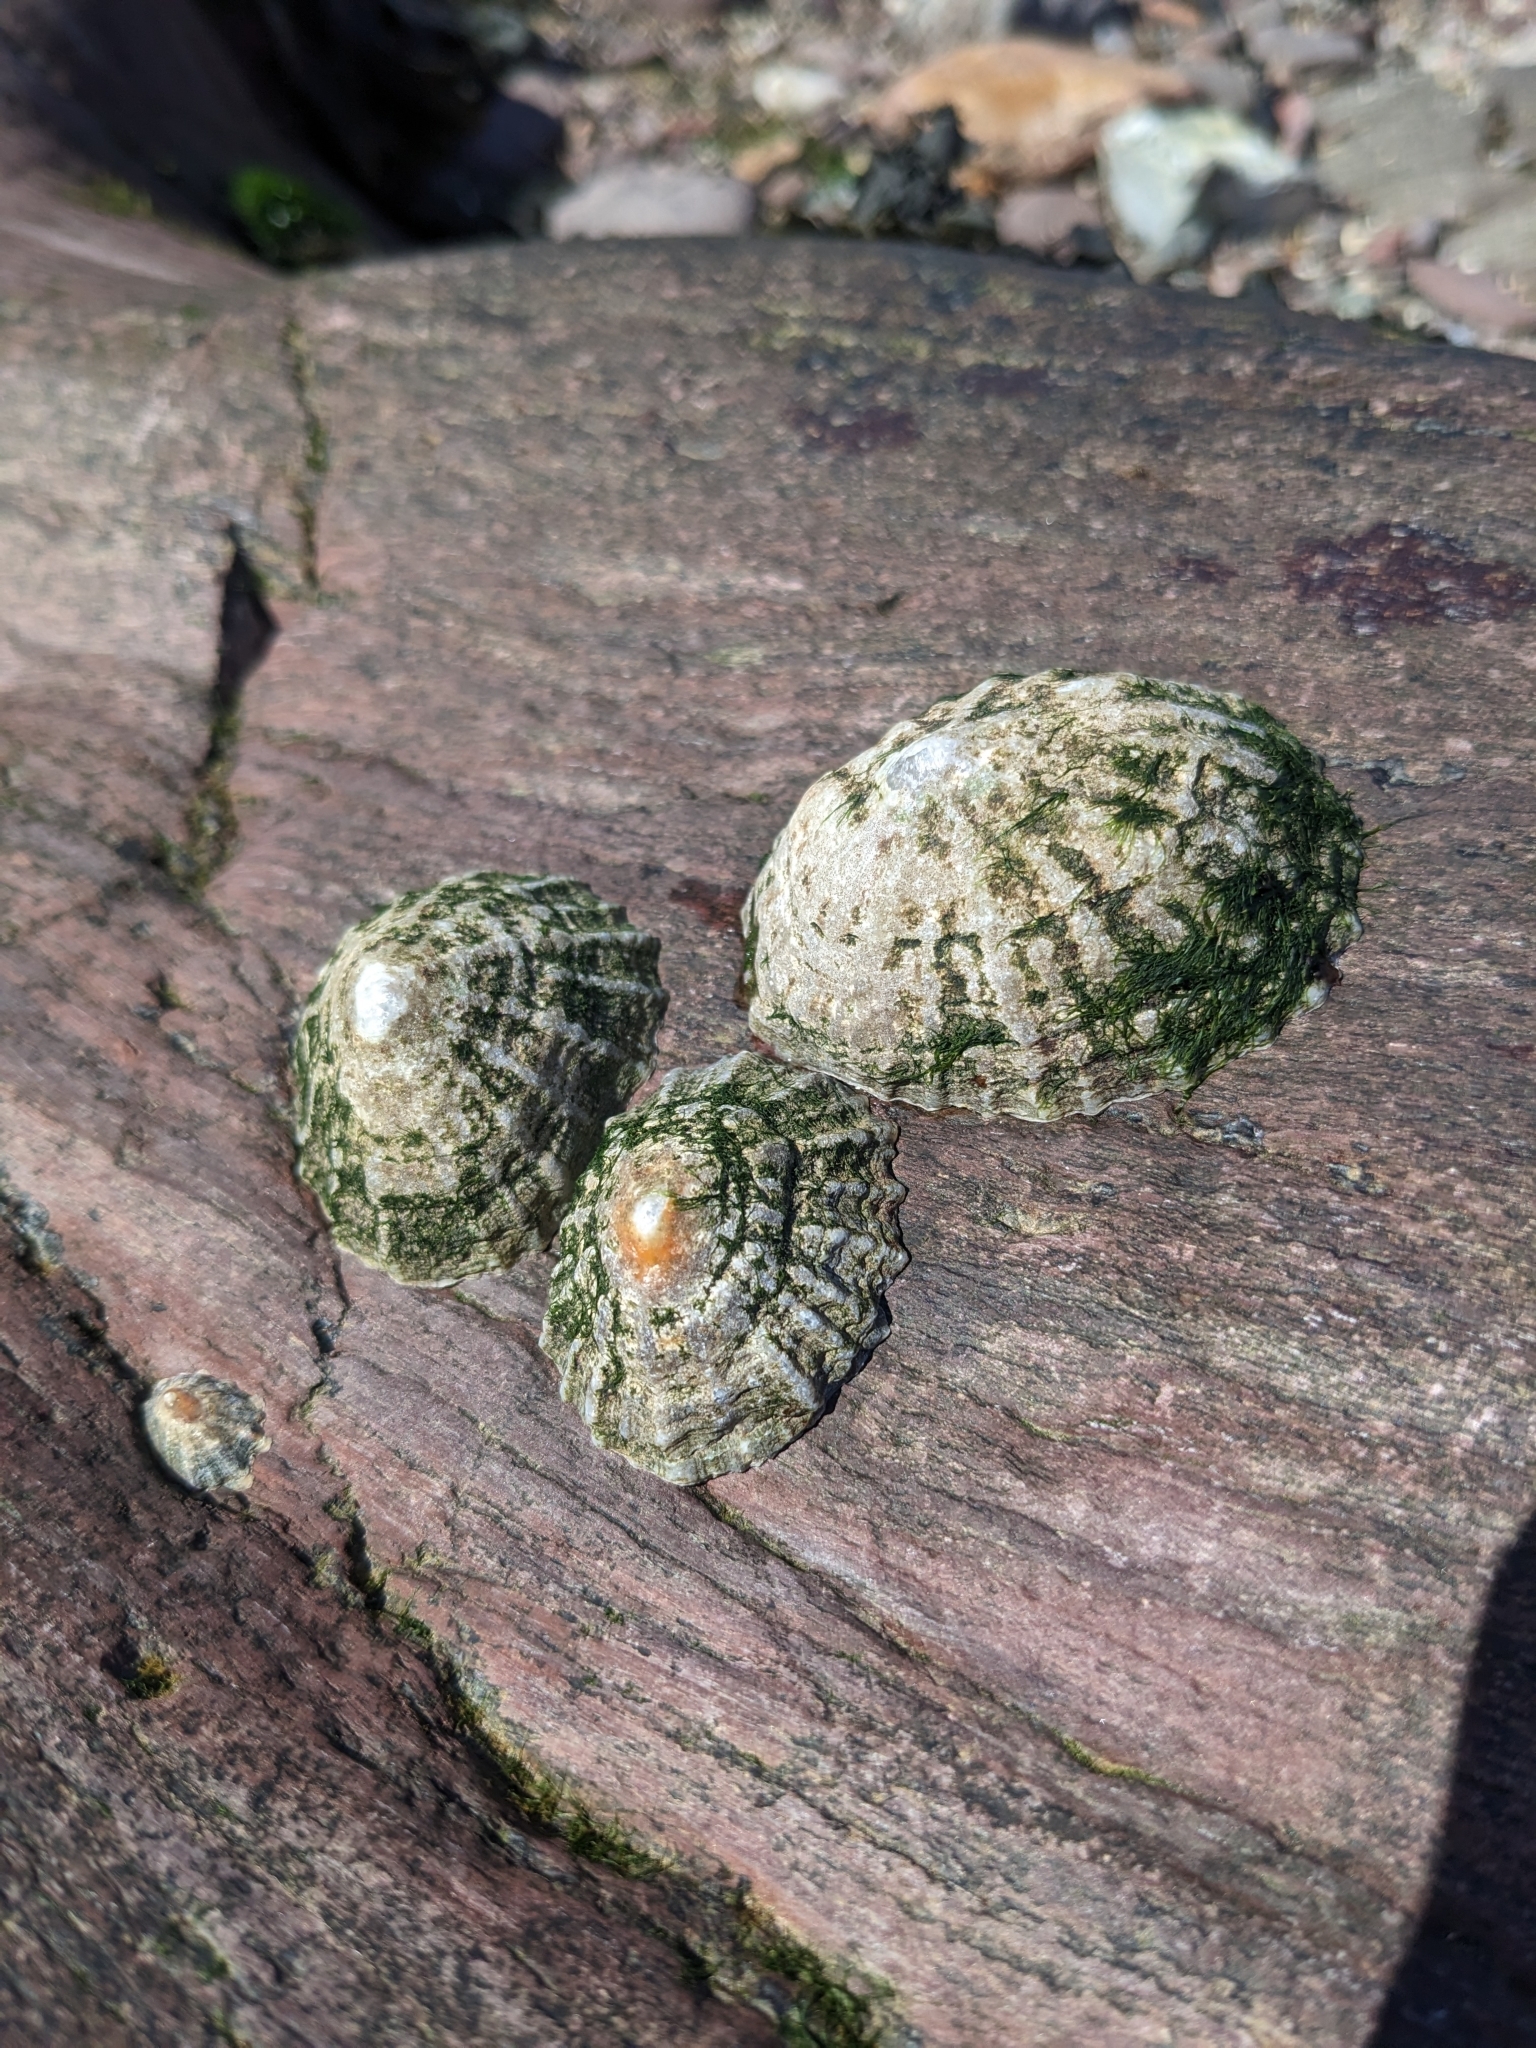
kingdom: Animalia
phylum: Mollusca
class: Gastropoda
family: Patellidae
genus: Patella
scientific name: Patella
